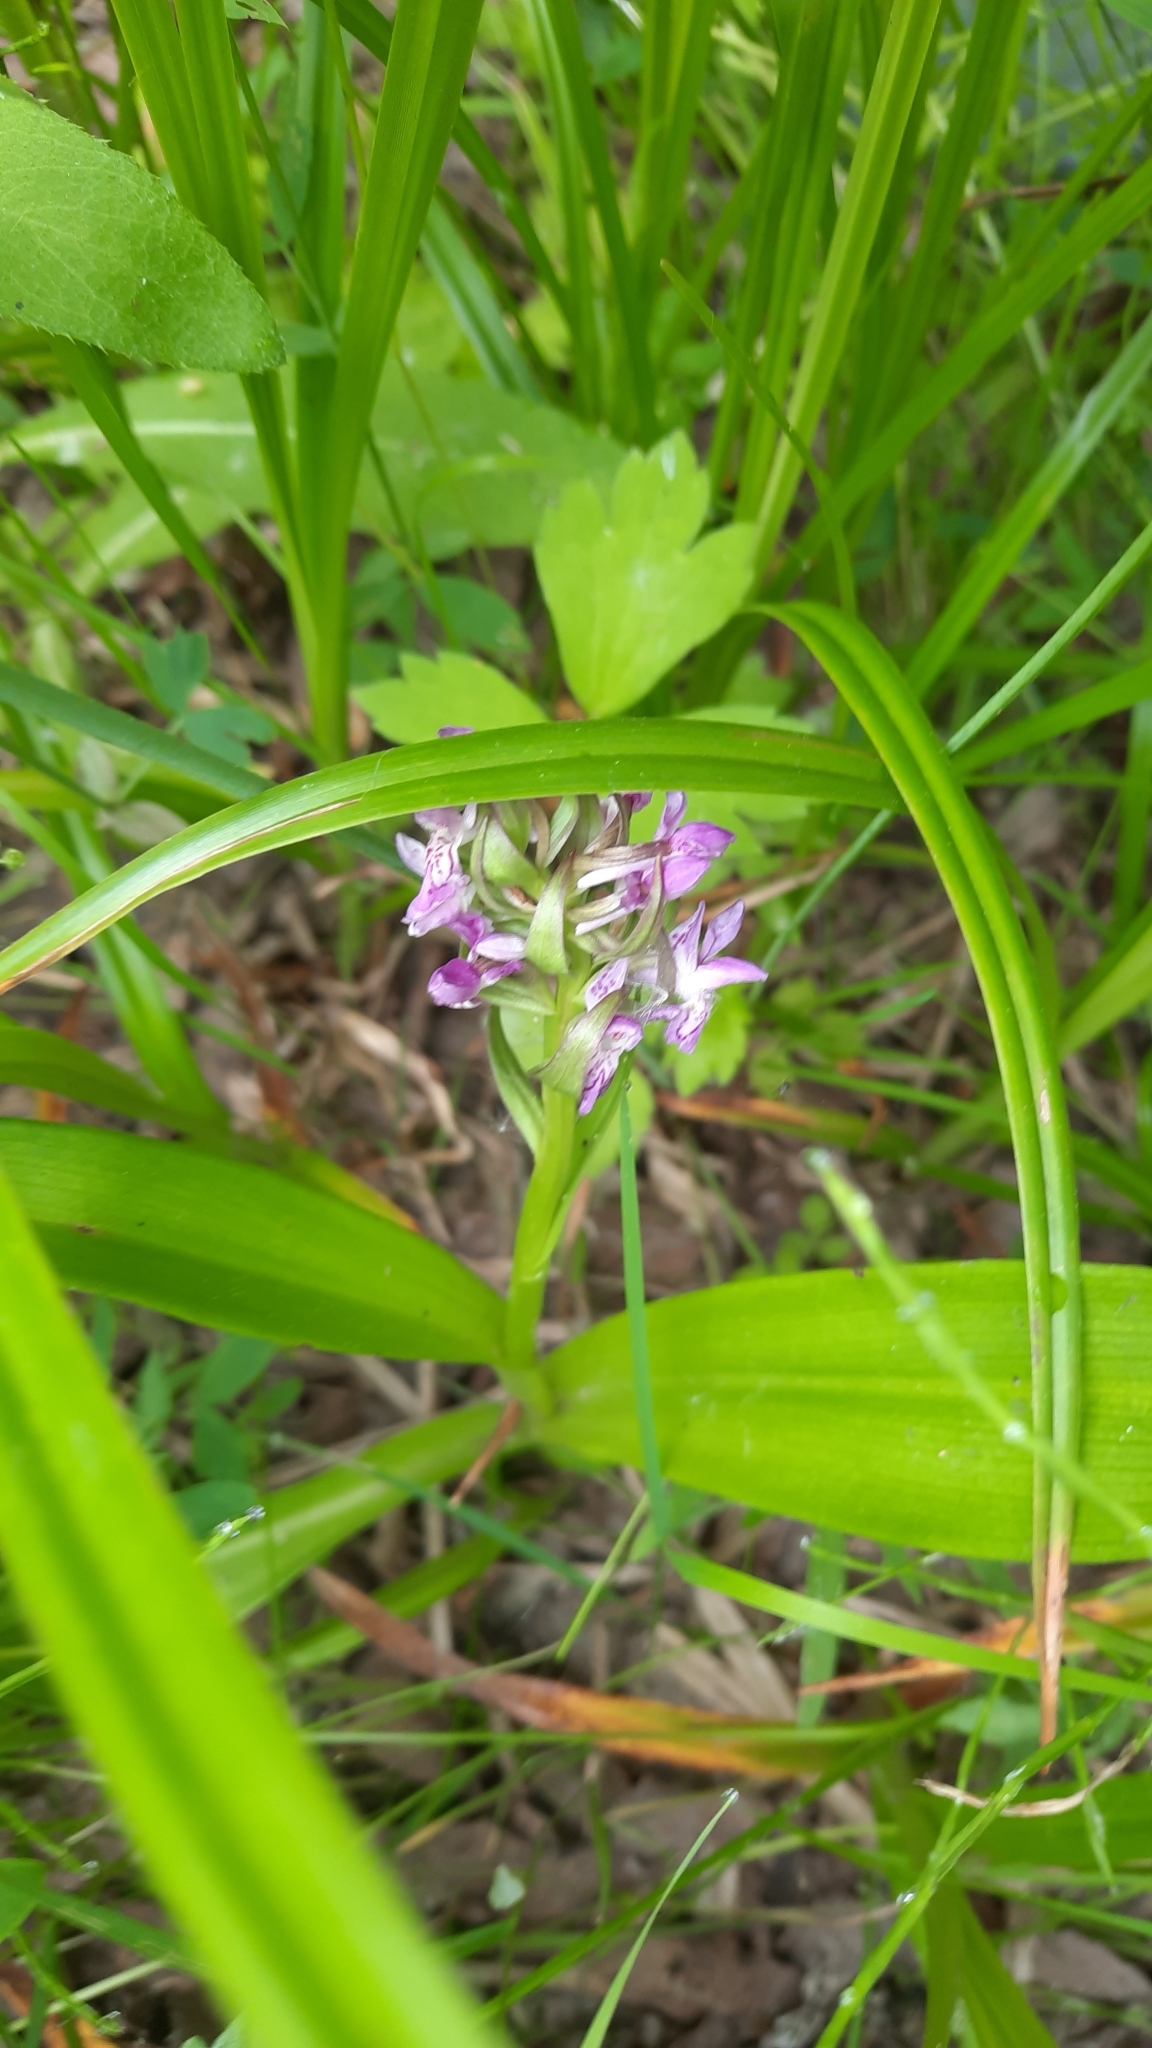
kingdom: Plantae
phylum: Tracheophyta
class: Liliopsida
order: Asparagales
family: Orchidaceae
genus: Dactylorhiza
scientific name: Dactylorhiza incarnata
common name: Early marsh-orchid
